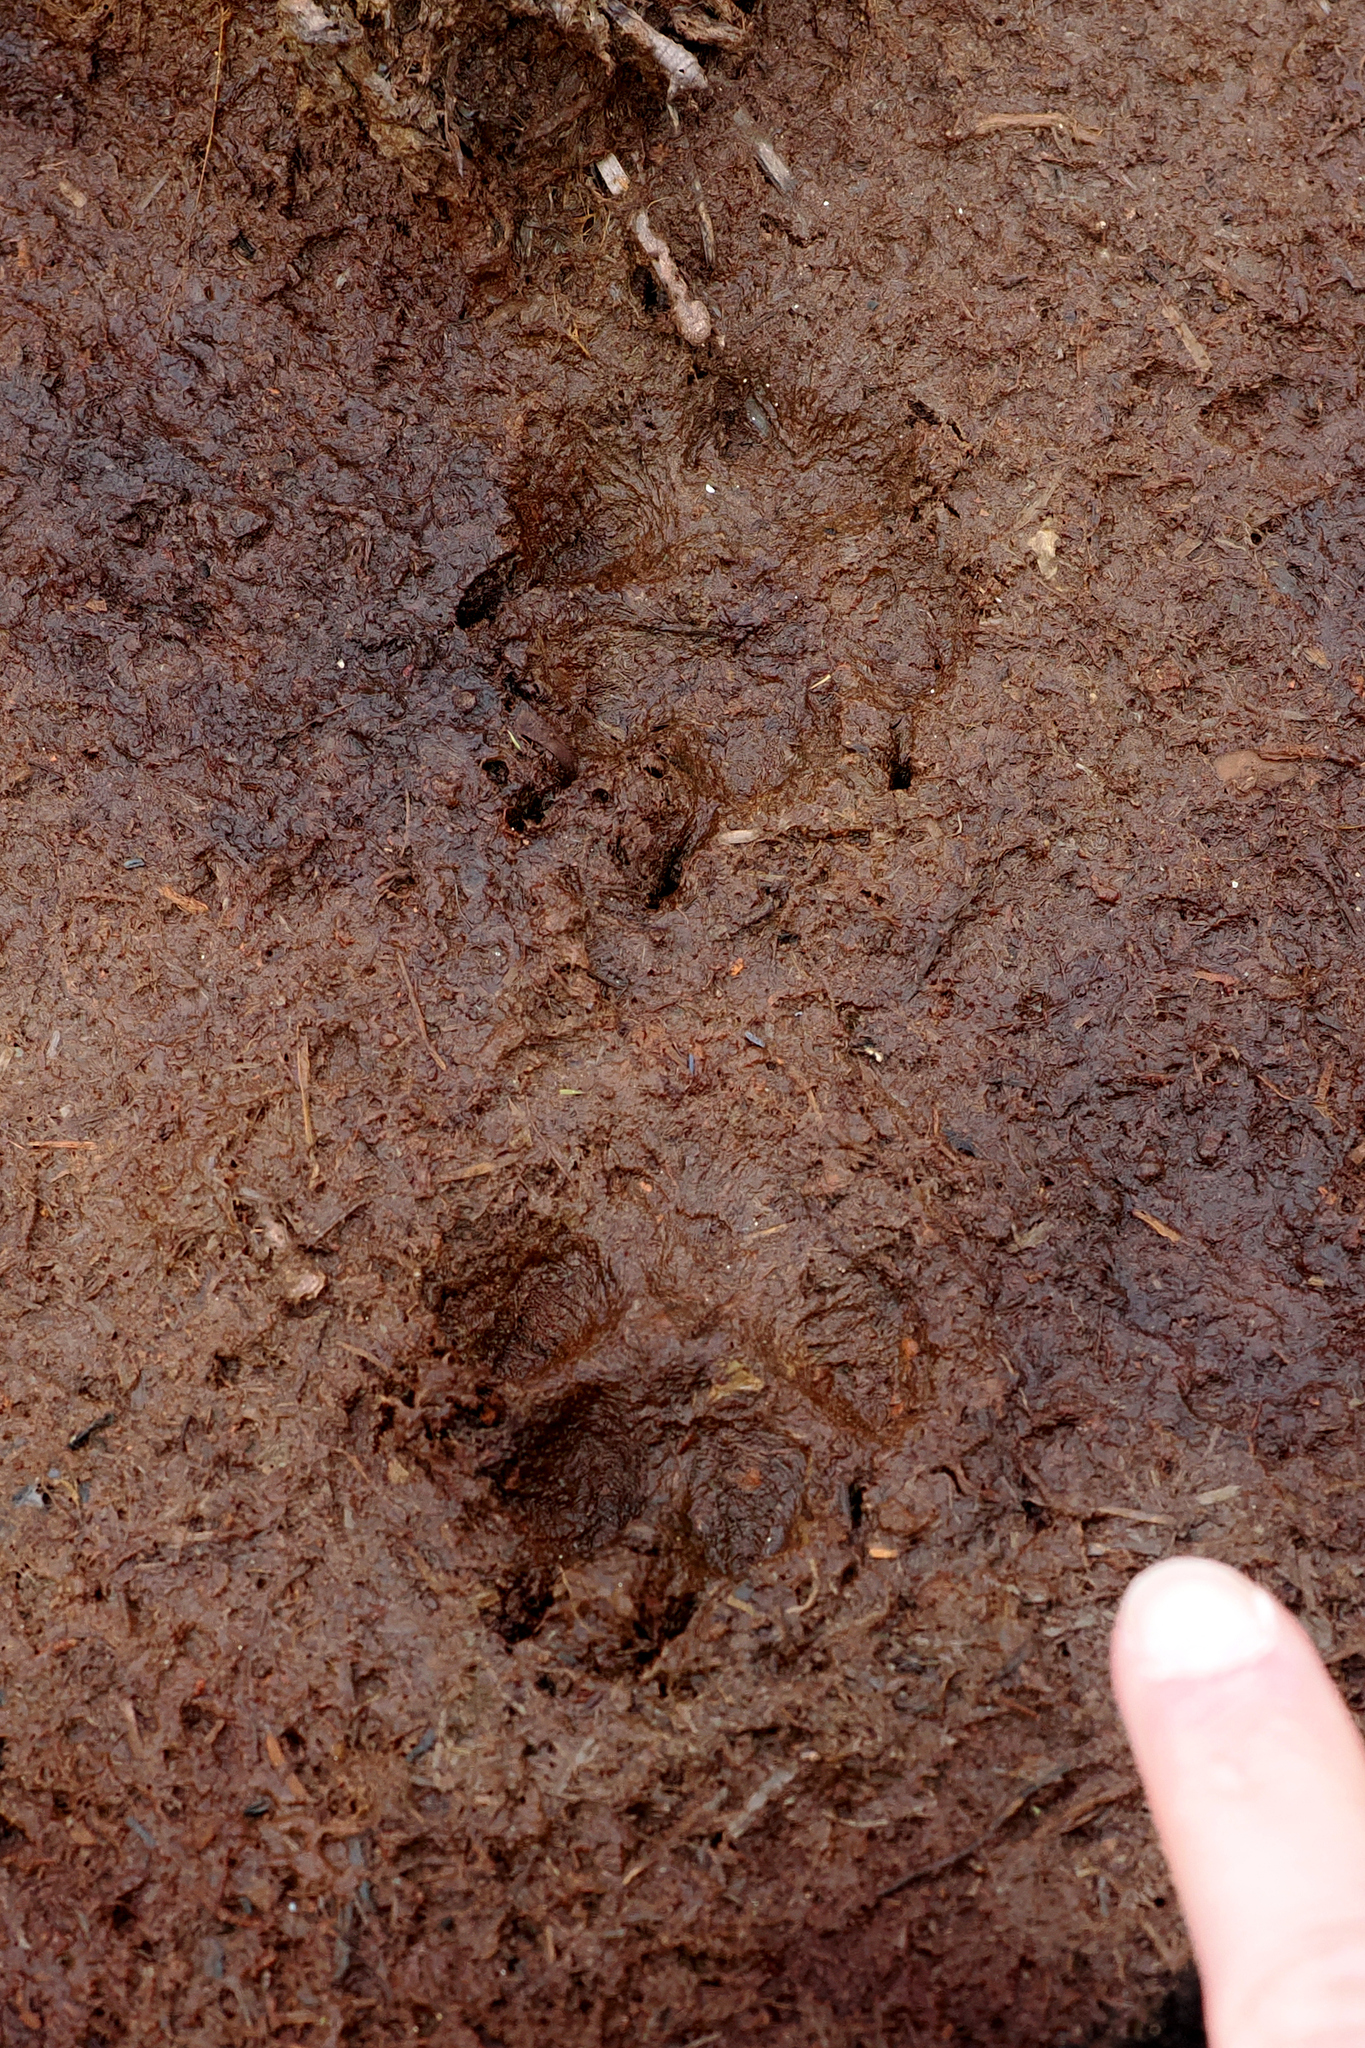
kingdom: Animalia
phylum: Chordata
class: Mammalia
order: Carnivora
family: Canidae
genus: Vulpes
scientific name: Vulpes lagopus
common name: Arctic fox
